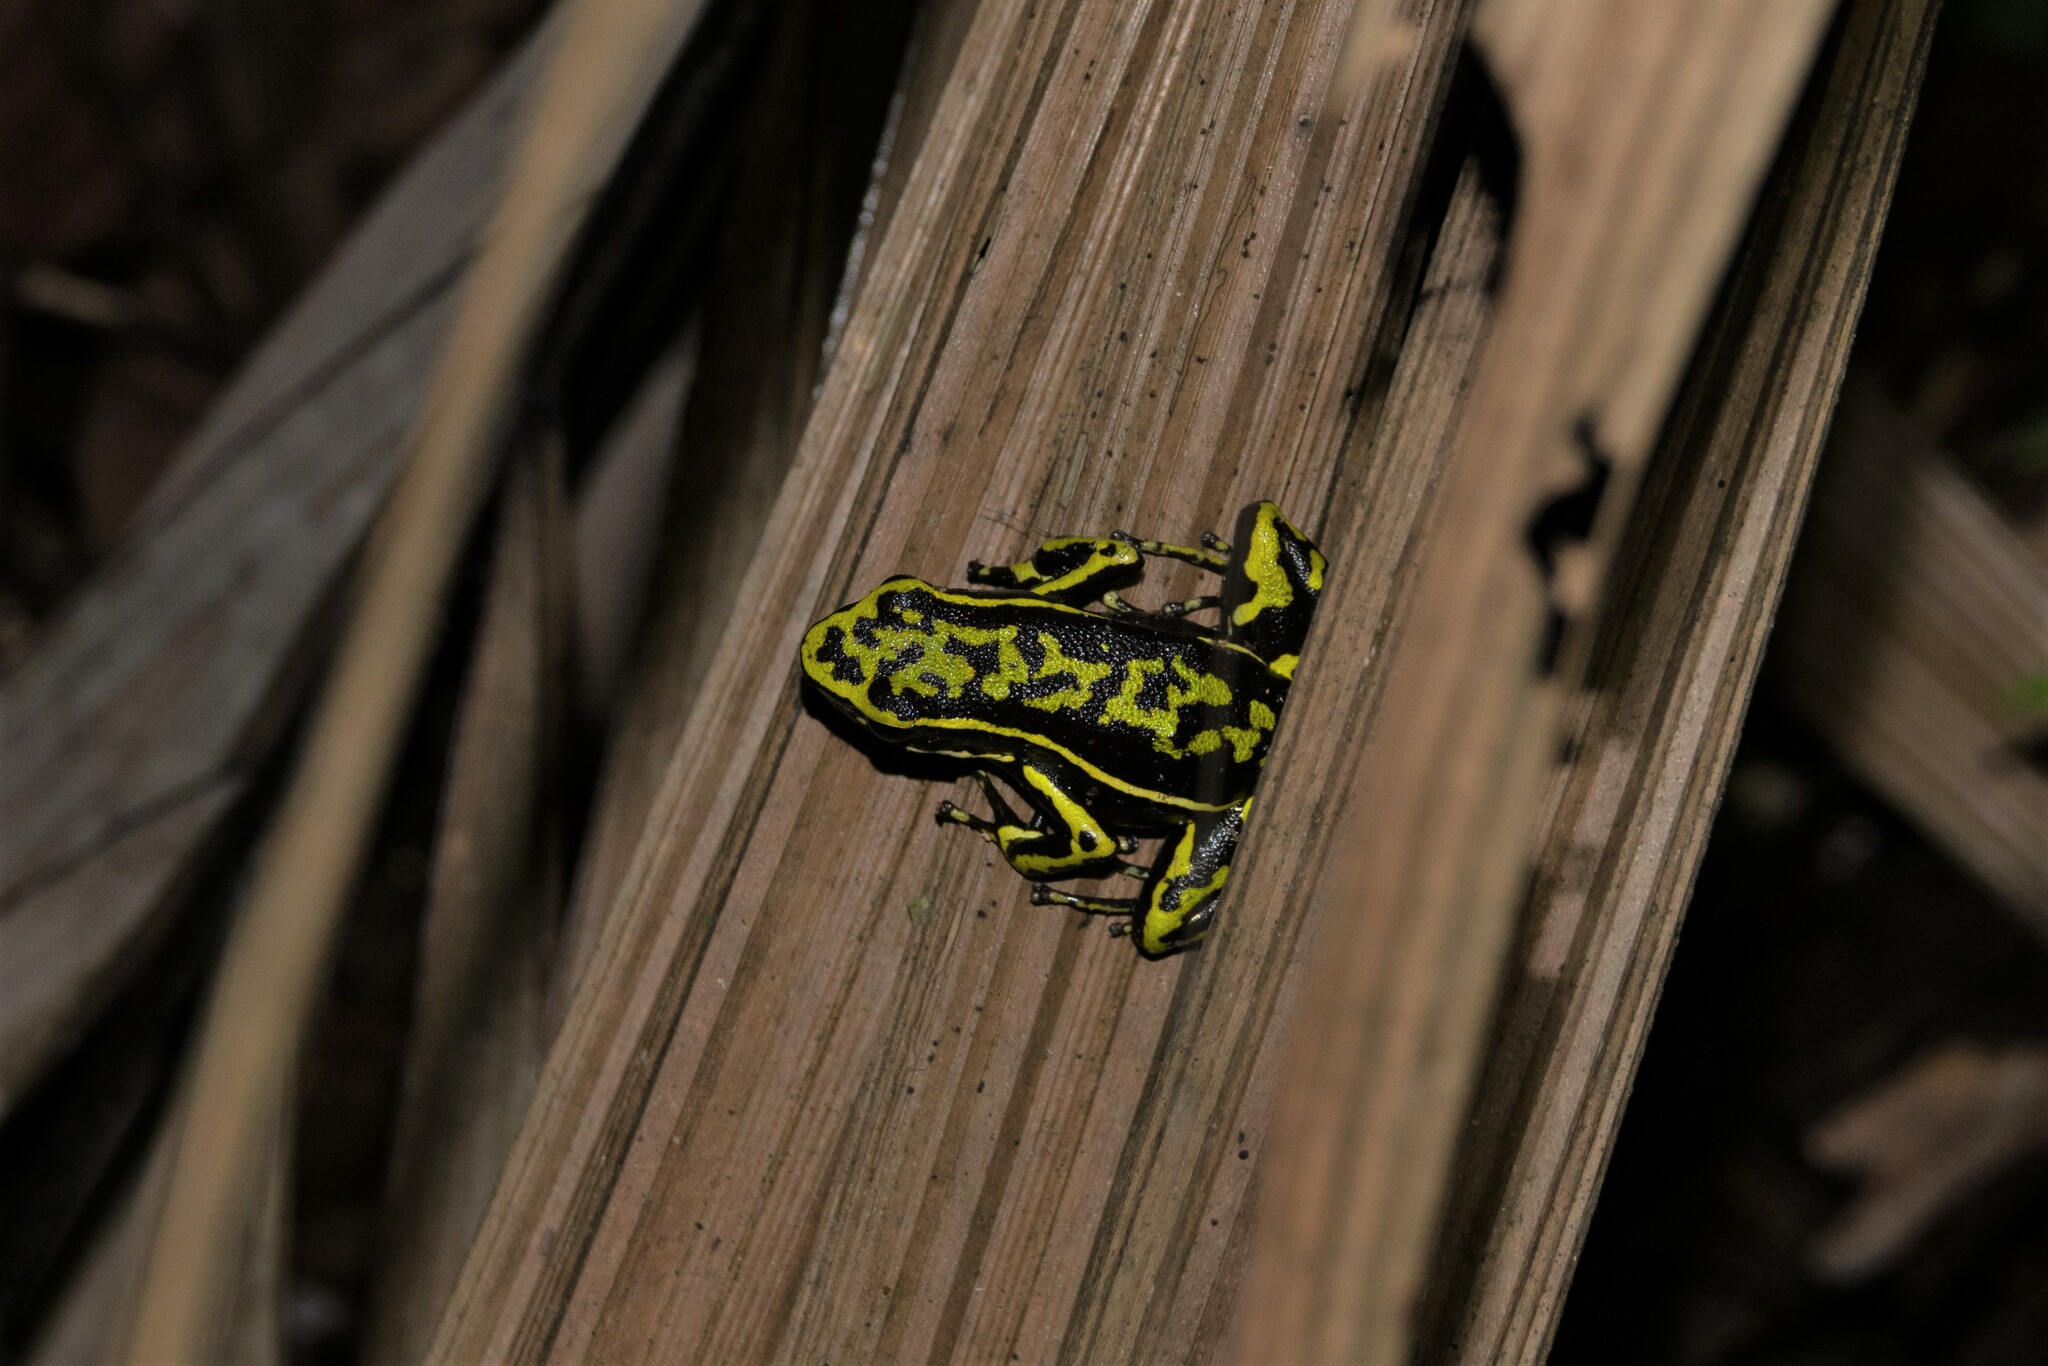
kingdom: Animalia
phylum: Chordata
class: Amphibia
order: Anura
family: Dendrobatidae
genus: Ameerega
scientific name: Ameerega trivittata
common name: Three-striped arrow-poison frog
